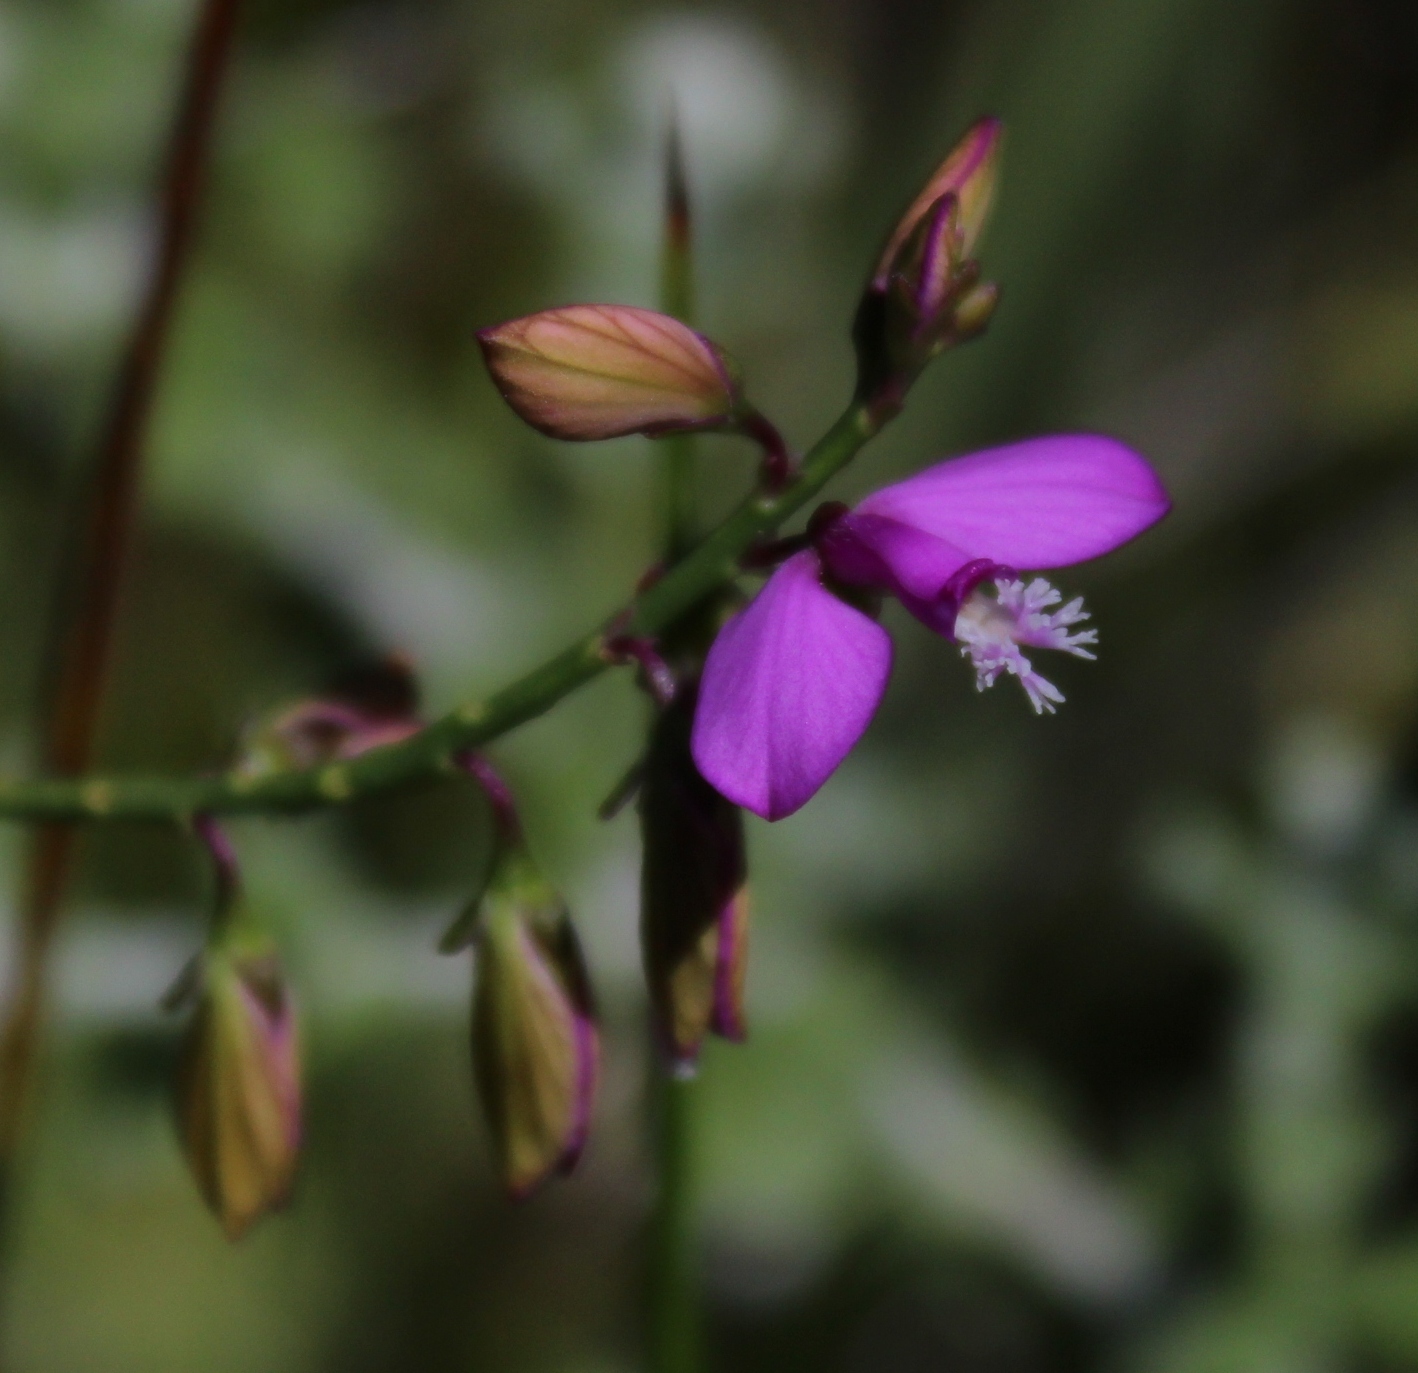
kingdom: Plantae
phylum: Tracheophyta
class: Magnoliopsida
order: Fabales
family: Polygalaceae
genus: Polygala
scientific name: Polygala garcini
